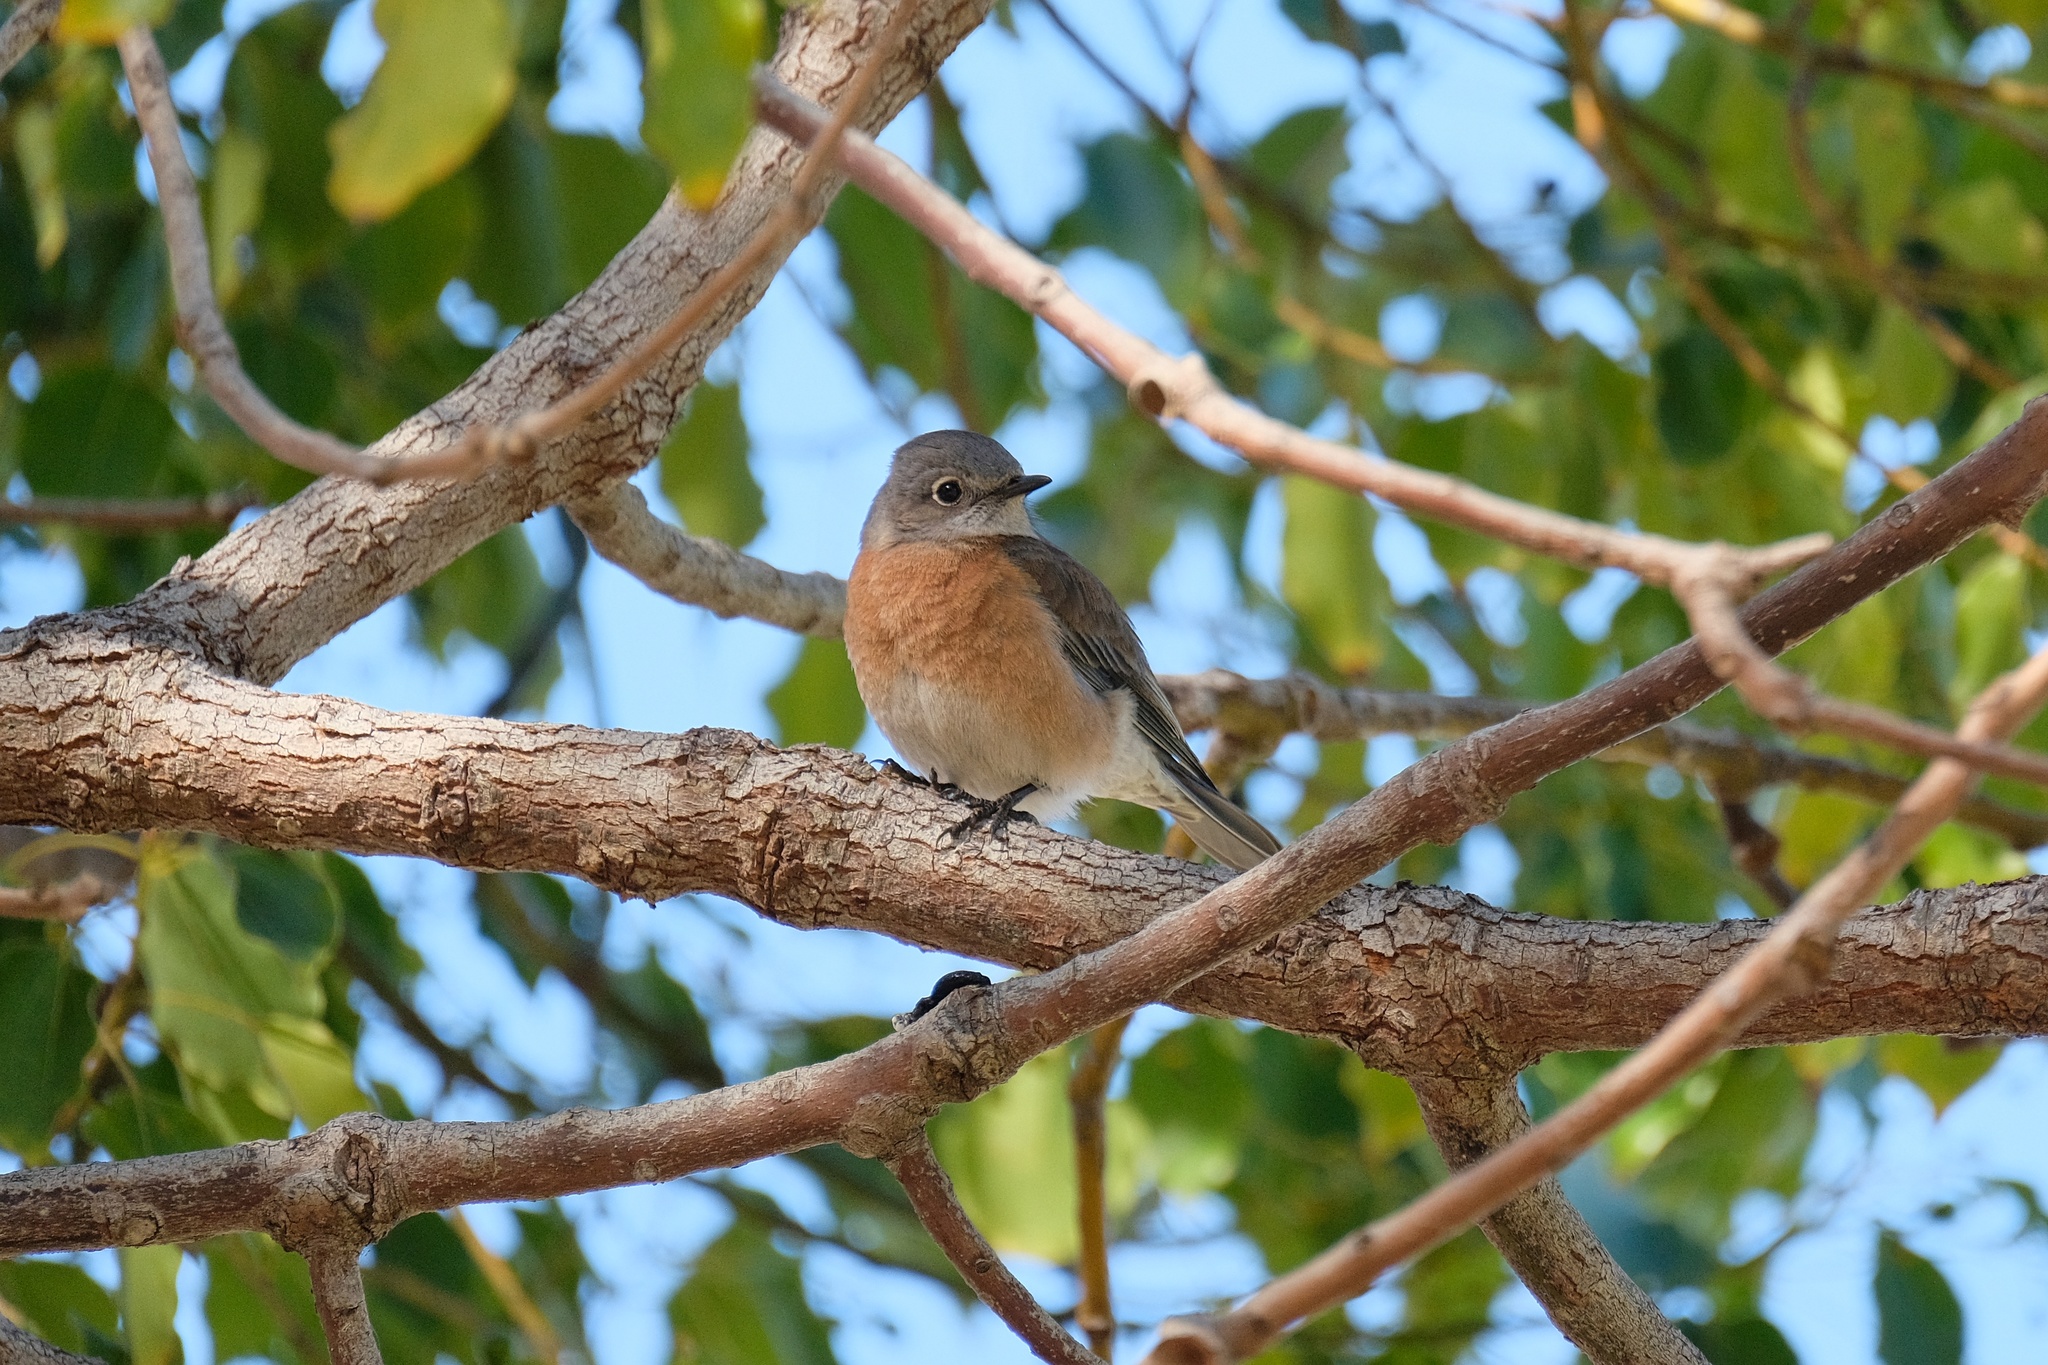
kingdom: Animalia
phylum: Chordata
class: Aves
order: Passeriformes
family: Turdidae
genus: Sialia
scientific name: Sialia mexicana
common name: Western bluebird
